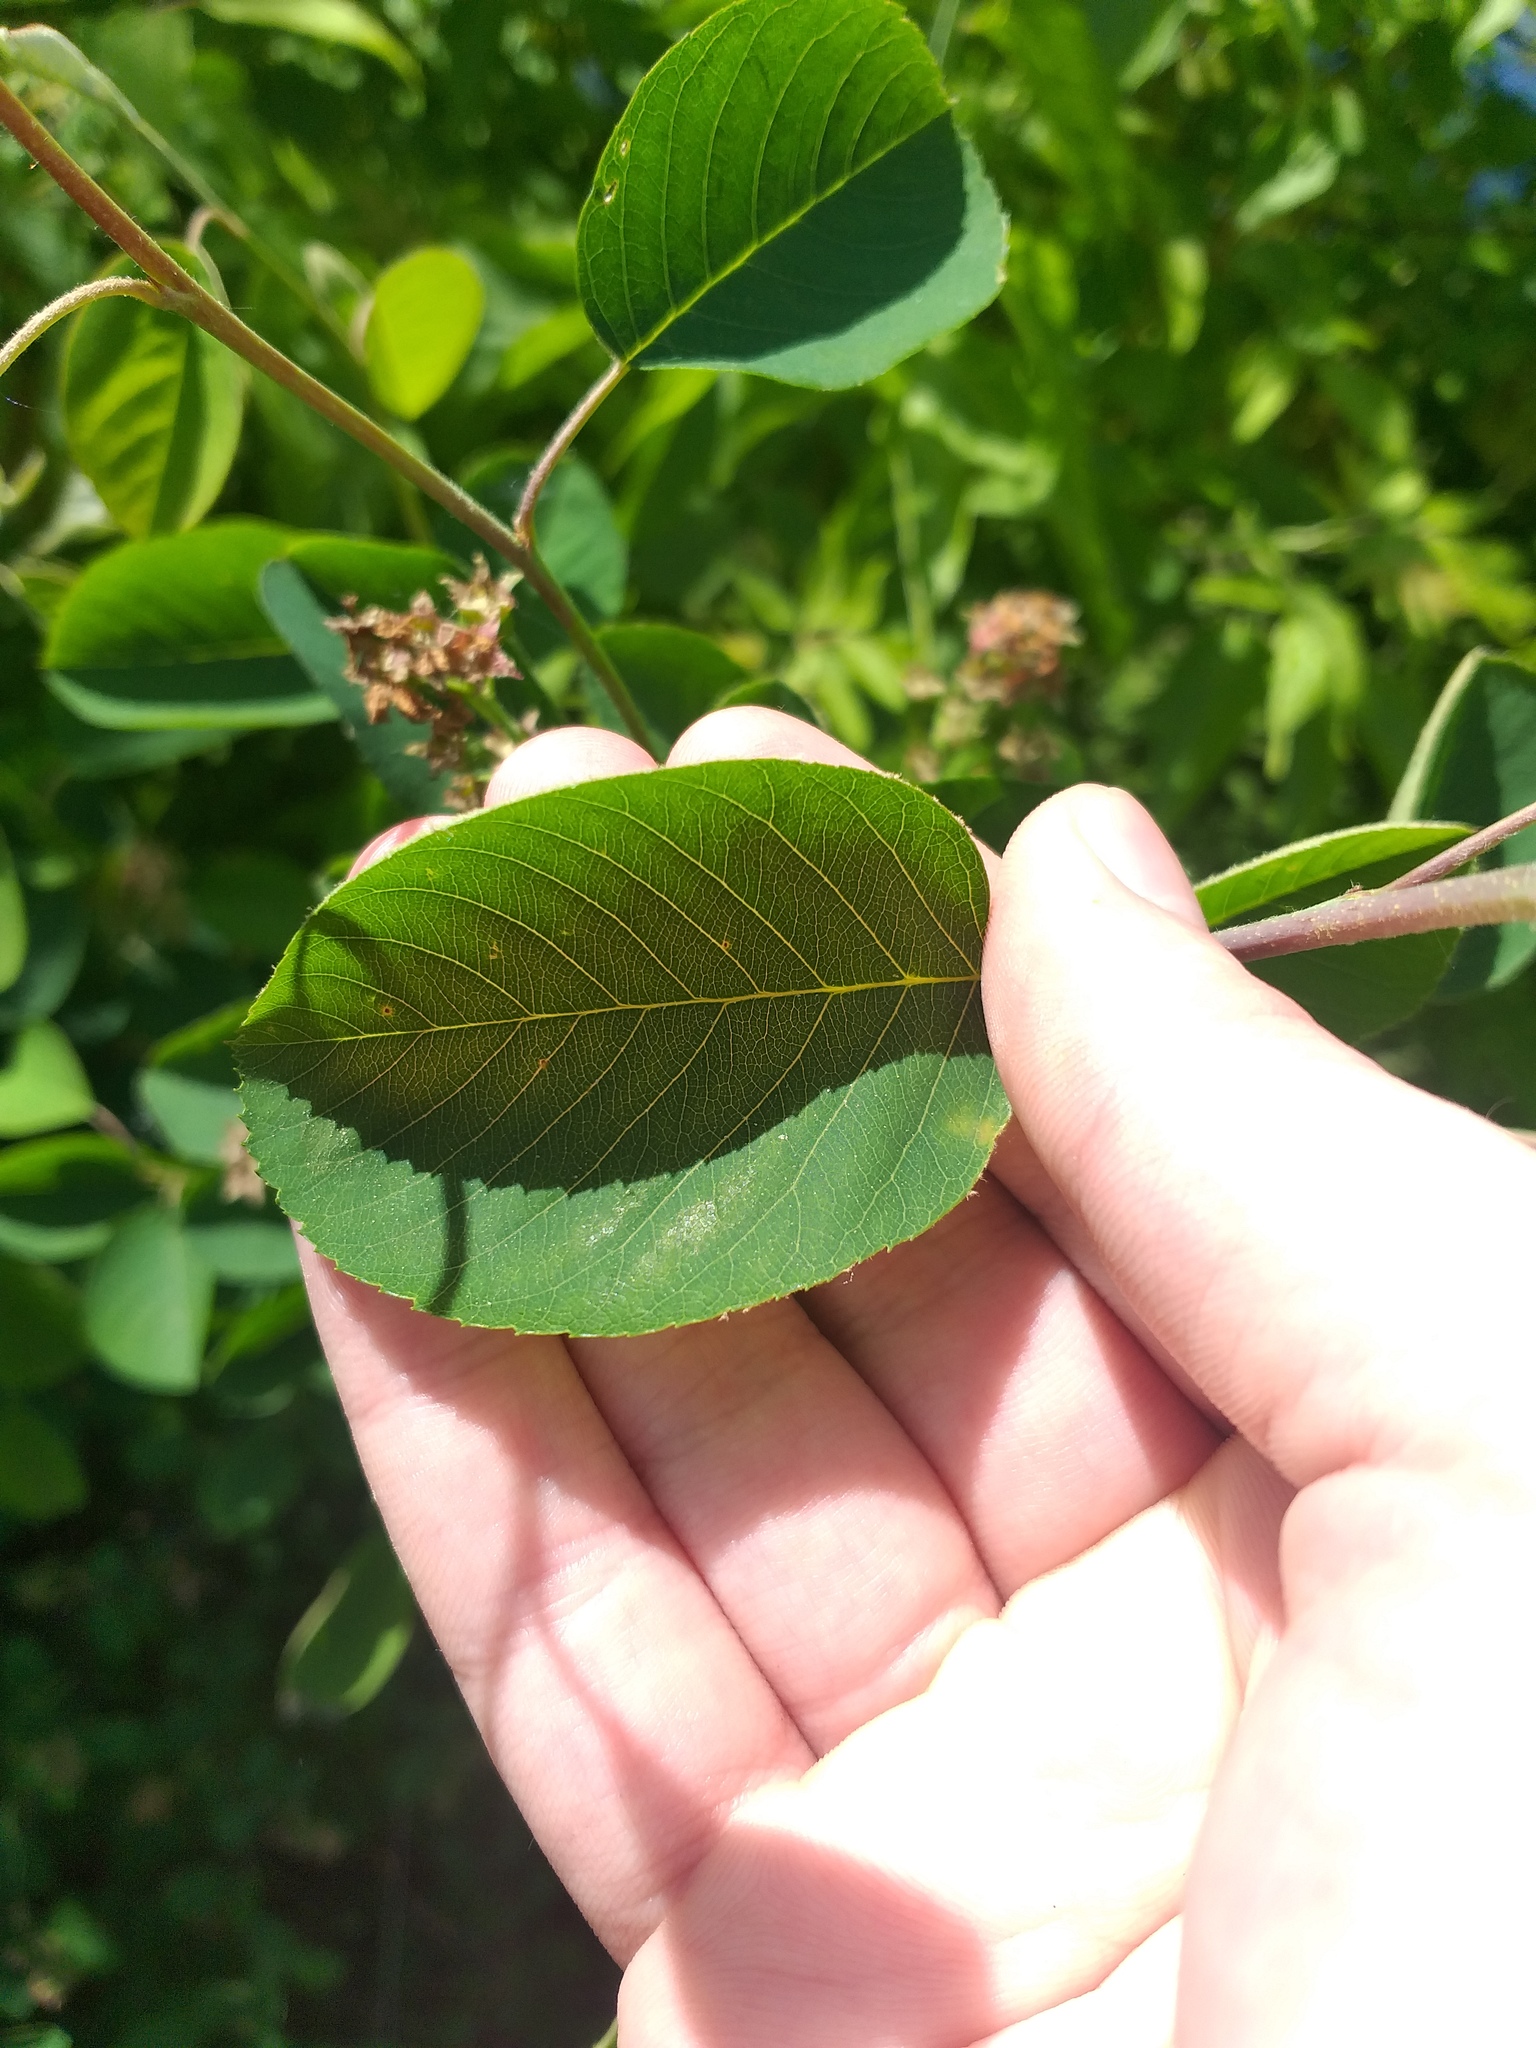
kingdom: Plantae
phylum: Tracheophyta
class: Magnoliopsida
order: Rosales
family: Rosaceae
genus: Amelanchier
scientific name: Amelanchier
